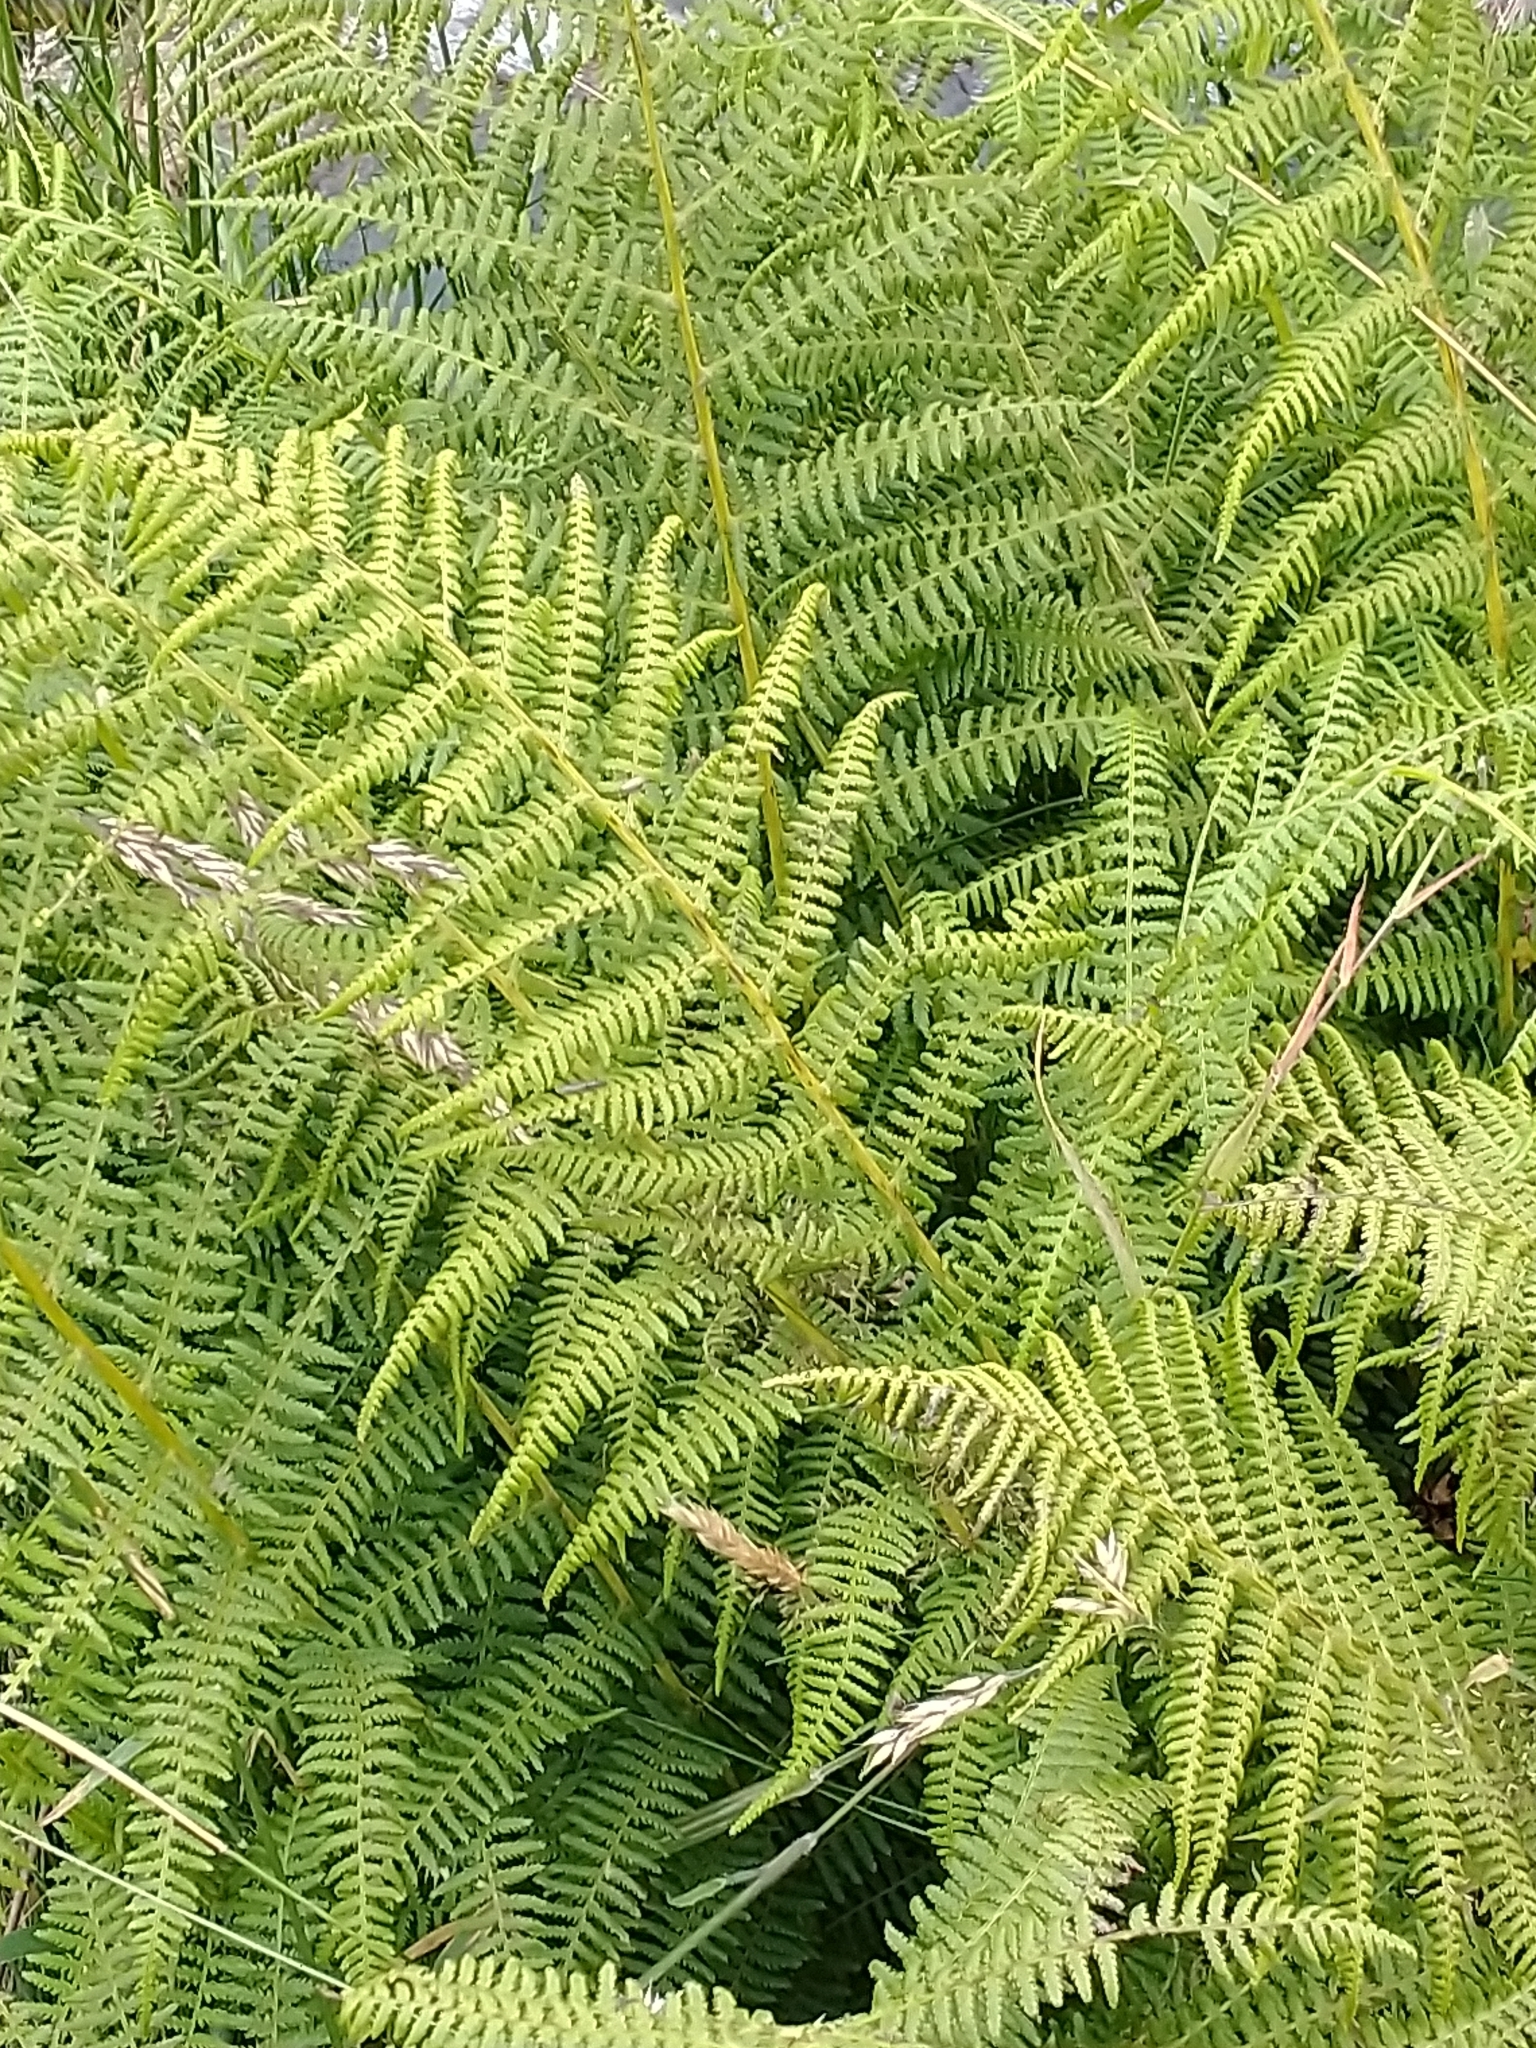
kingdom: Plantae
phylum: Tracheophyta
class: Polypodiopsida
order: Polypodiales
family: Athyriaceae
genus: Athyrium
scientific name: Athyrium filix-femina
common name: Lady fern
